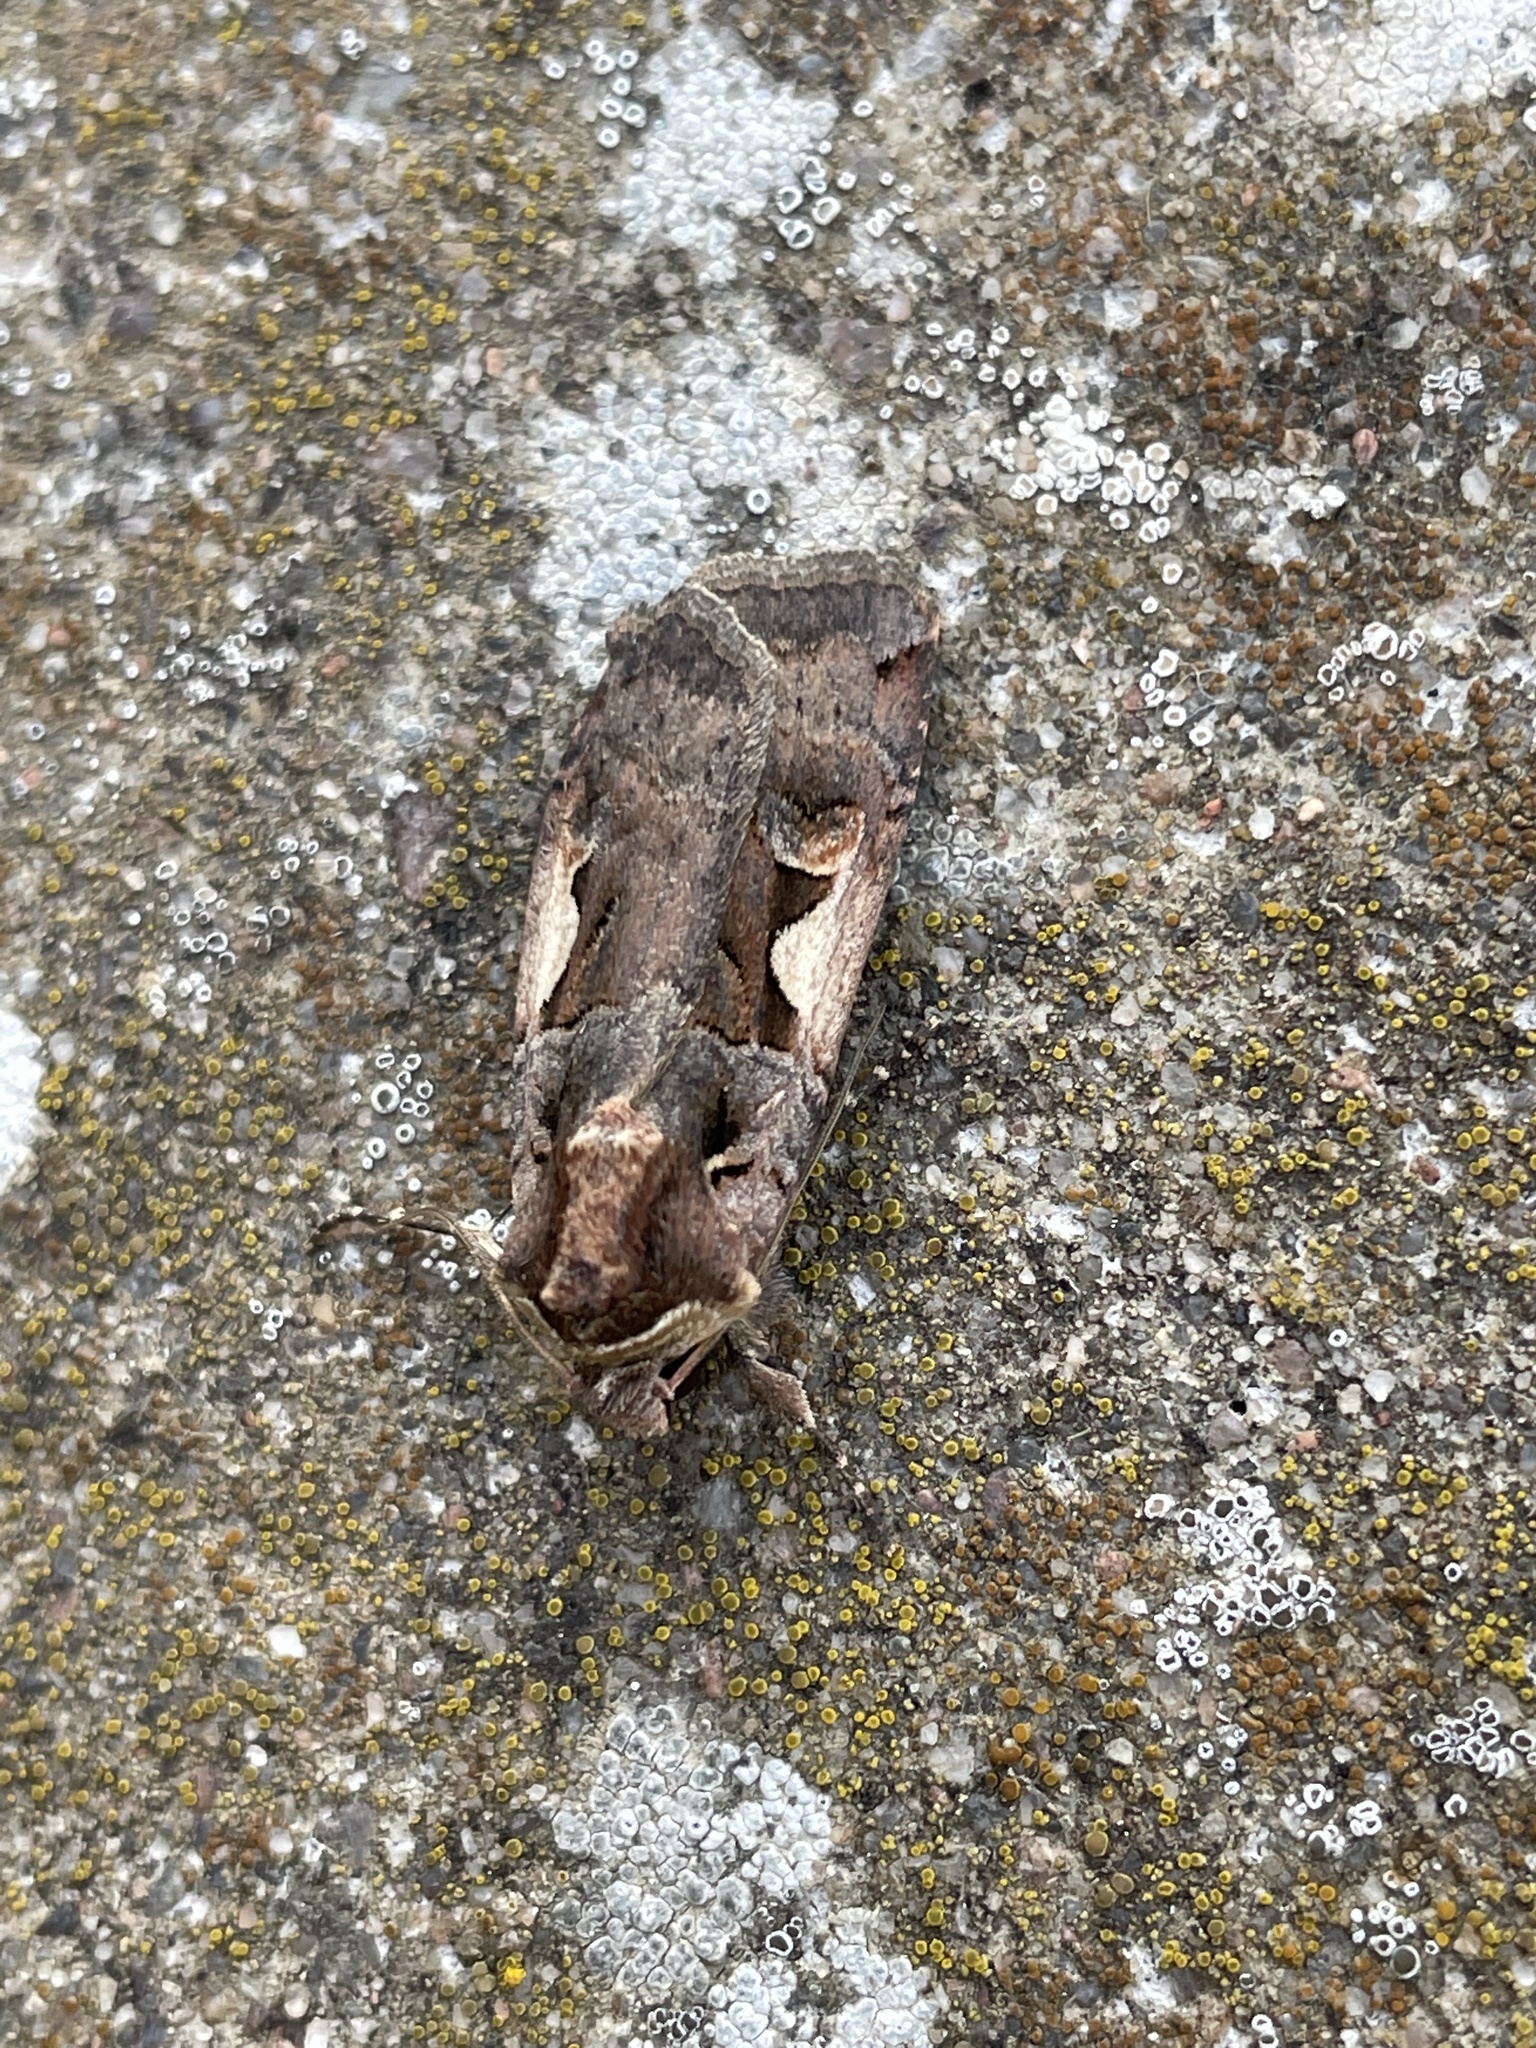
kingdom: Animalia
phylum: Arthropoda
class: Insecta
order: Lepidoptera
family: Noctuidae
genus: Xestia
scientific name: Xestia c-nigrum
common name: Setaceous hebrew character
